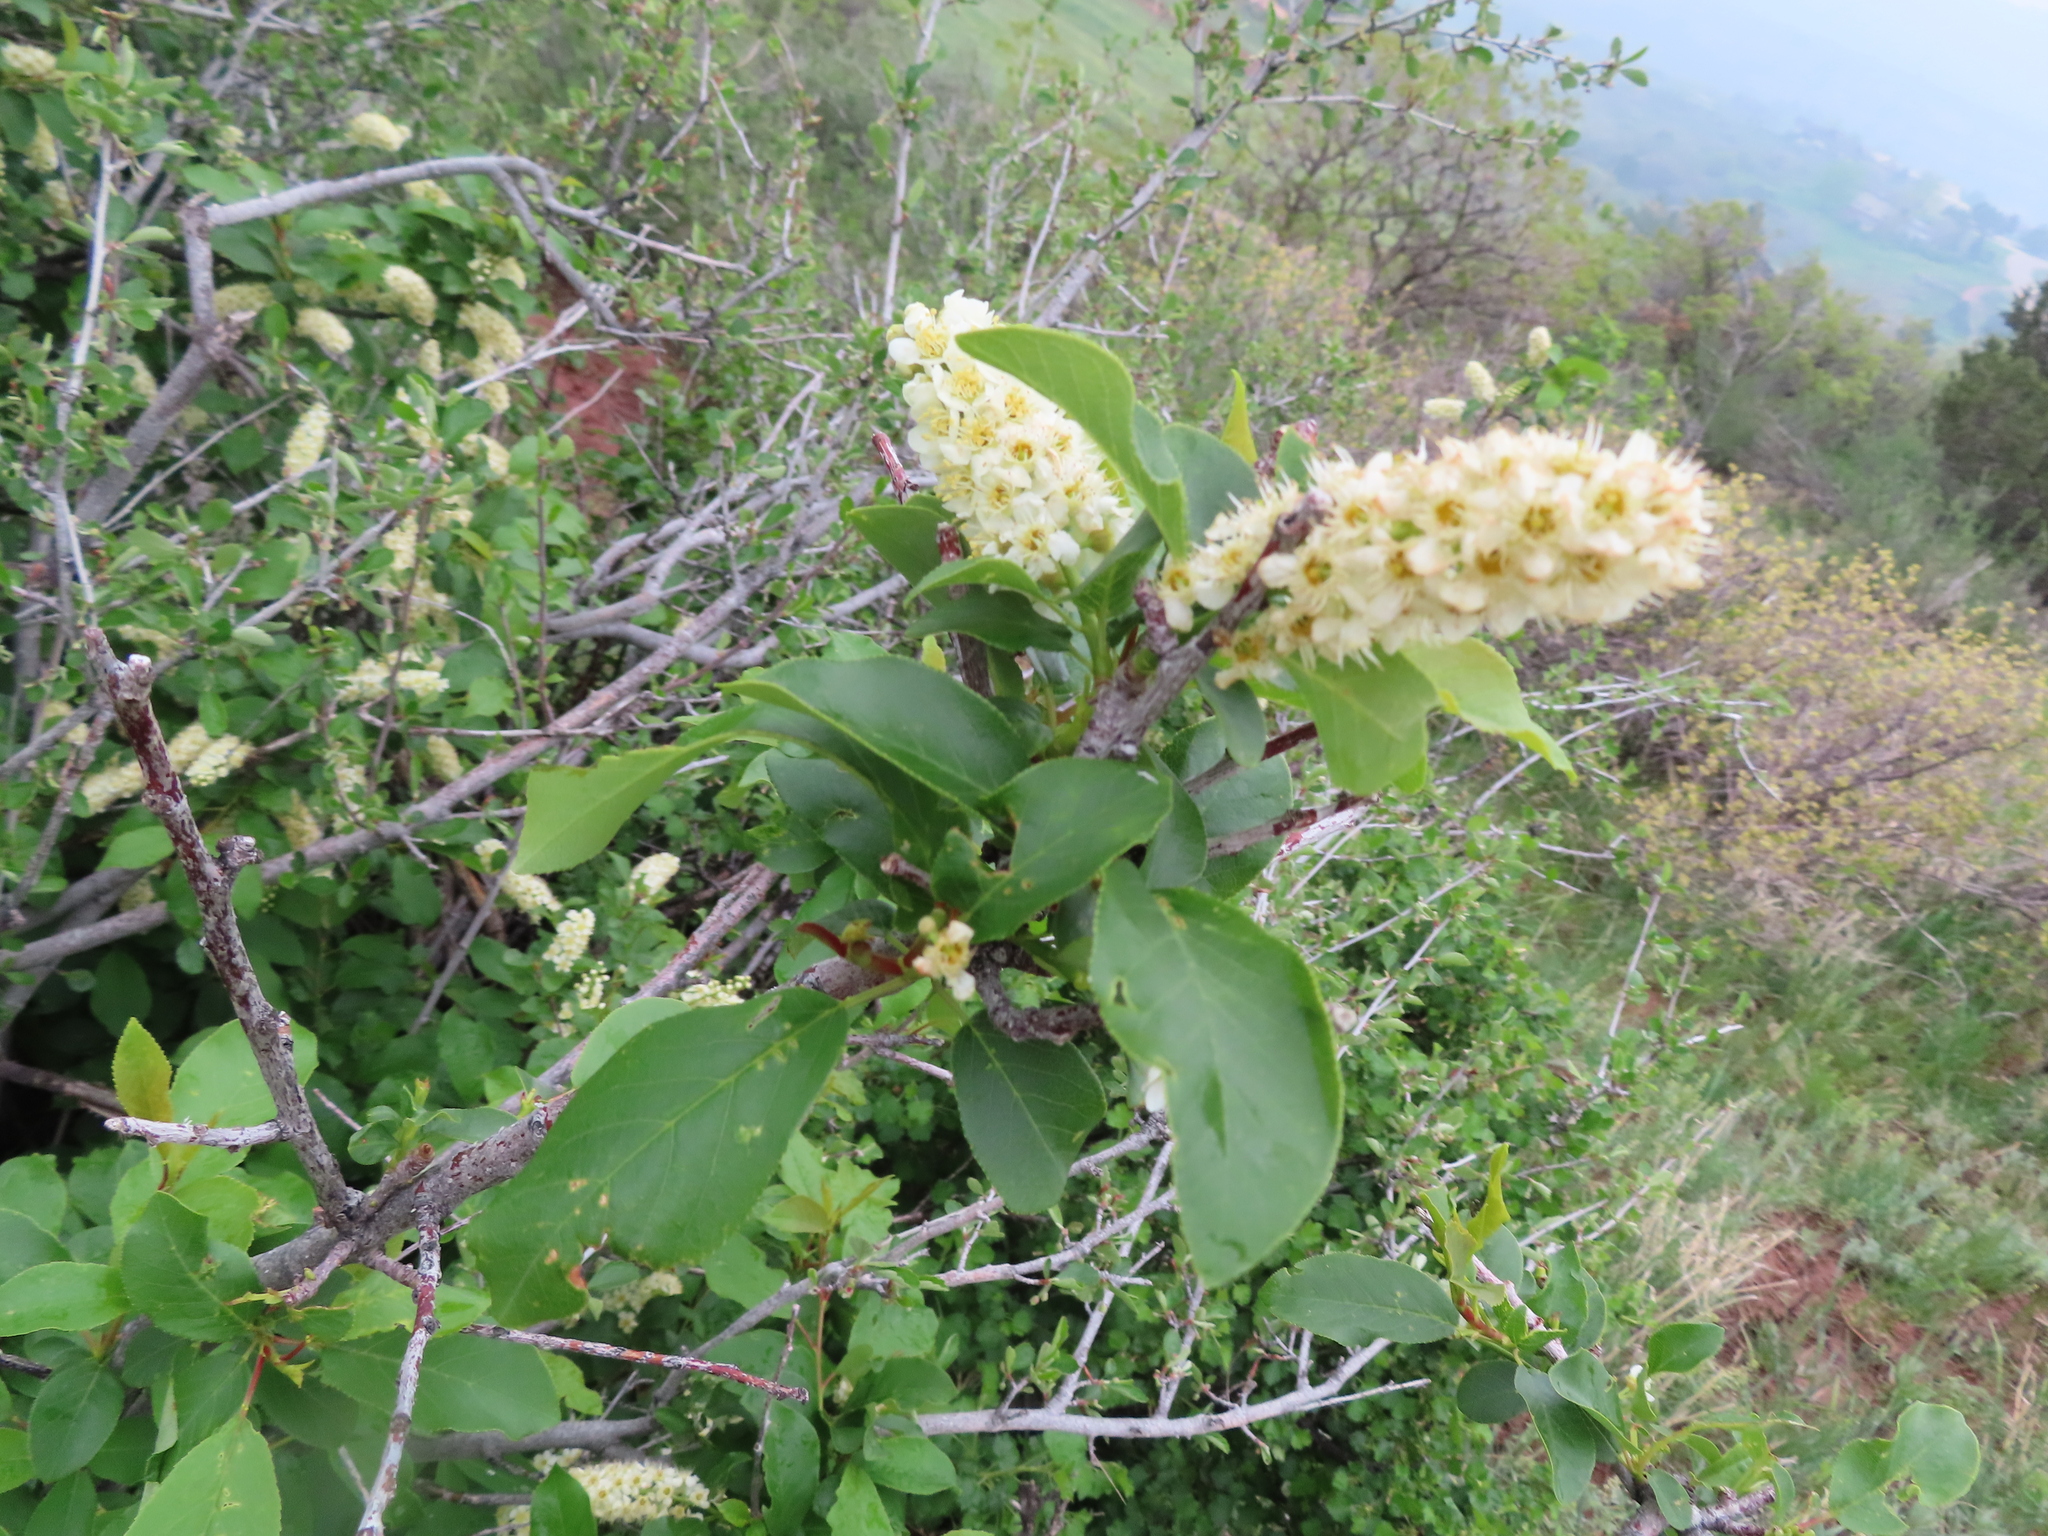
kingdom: Plantae
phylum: Tracheophyta
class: Magnoliopsida
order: Rosales
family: Rosaceae
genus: Prunus
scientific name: Prunus virginiana
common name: Chokecherry
